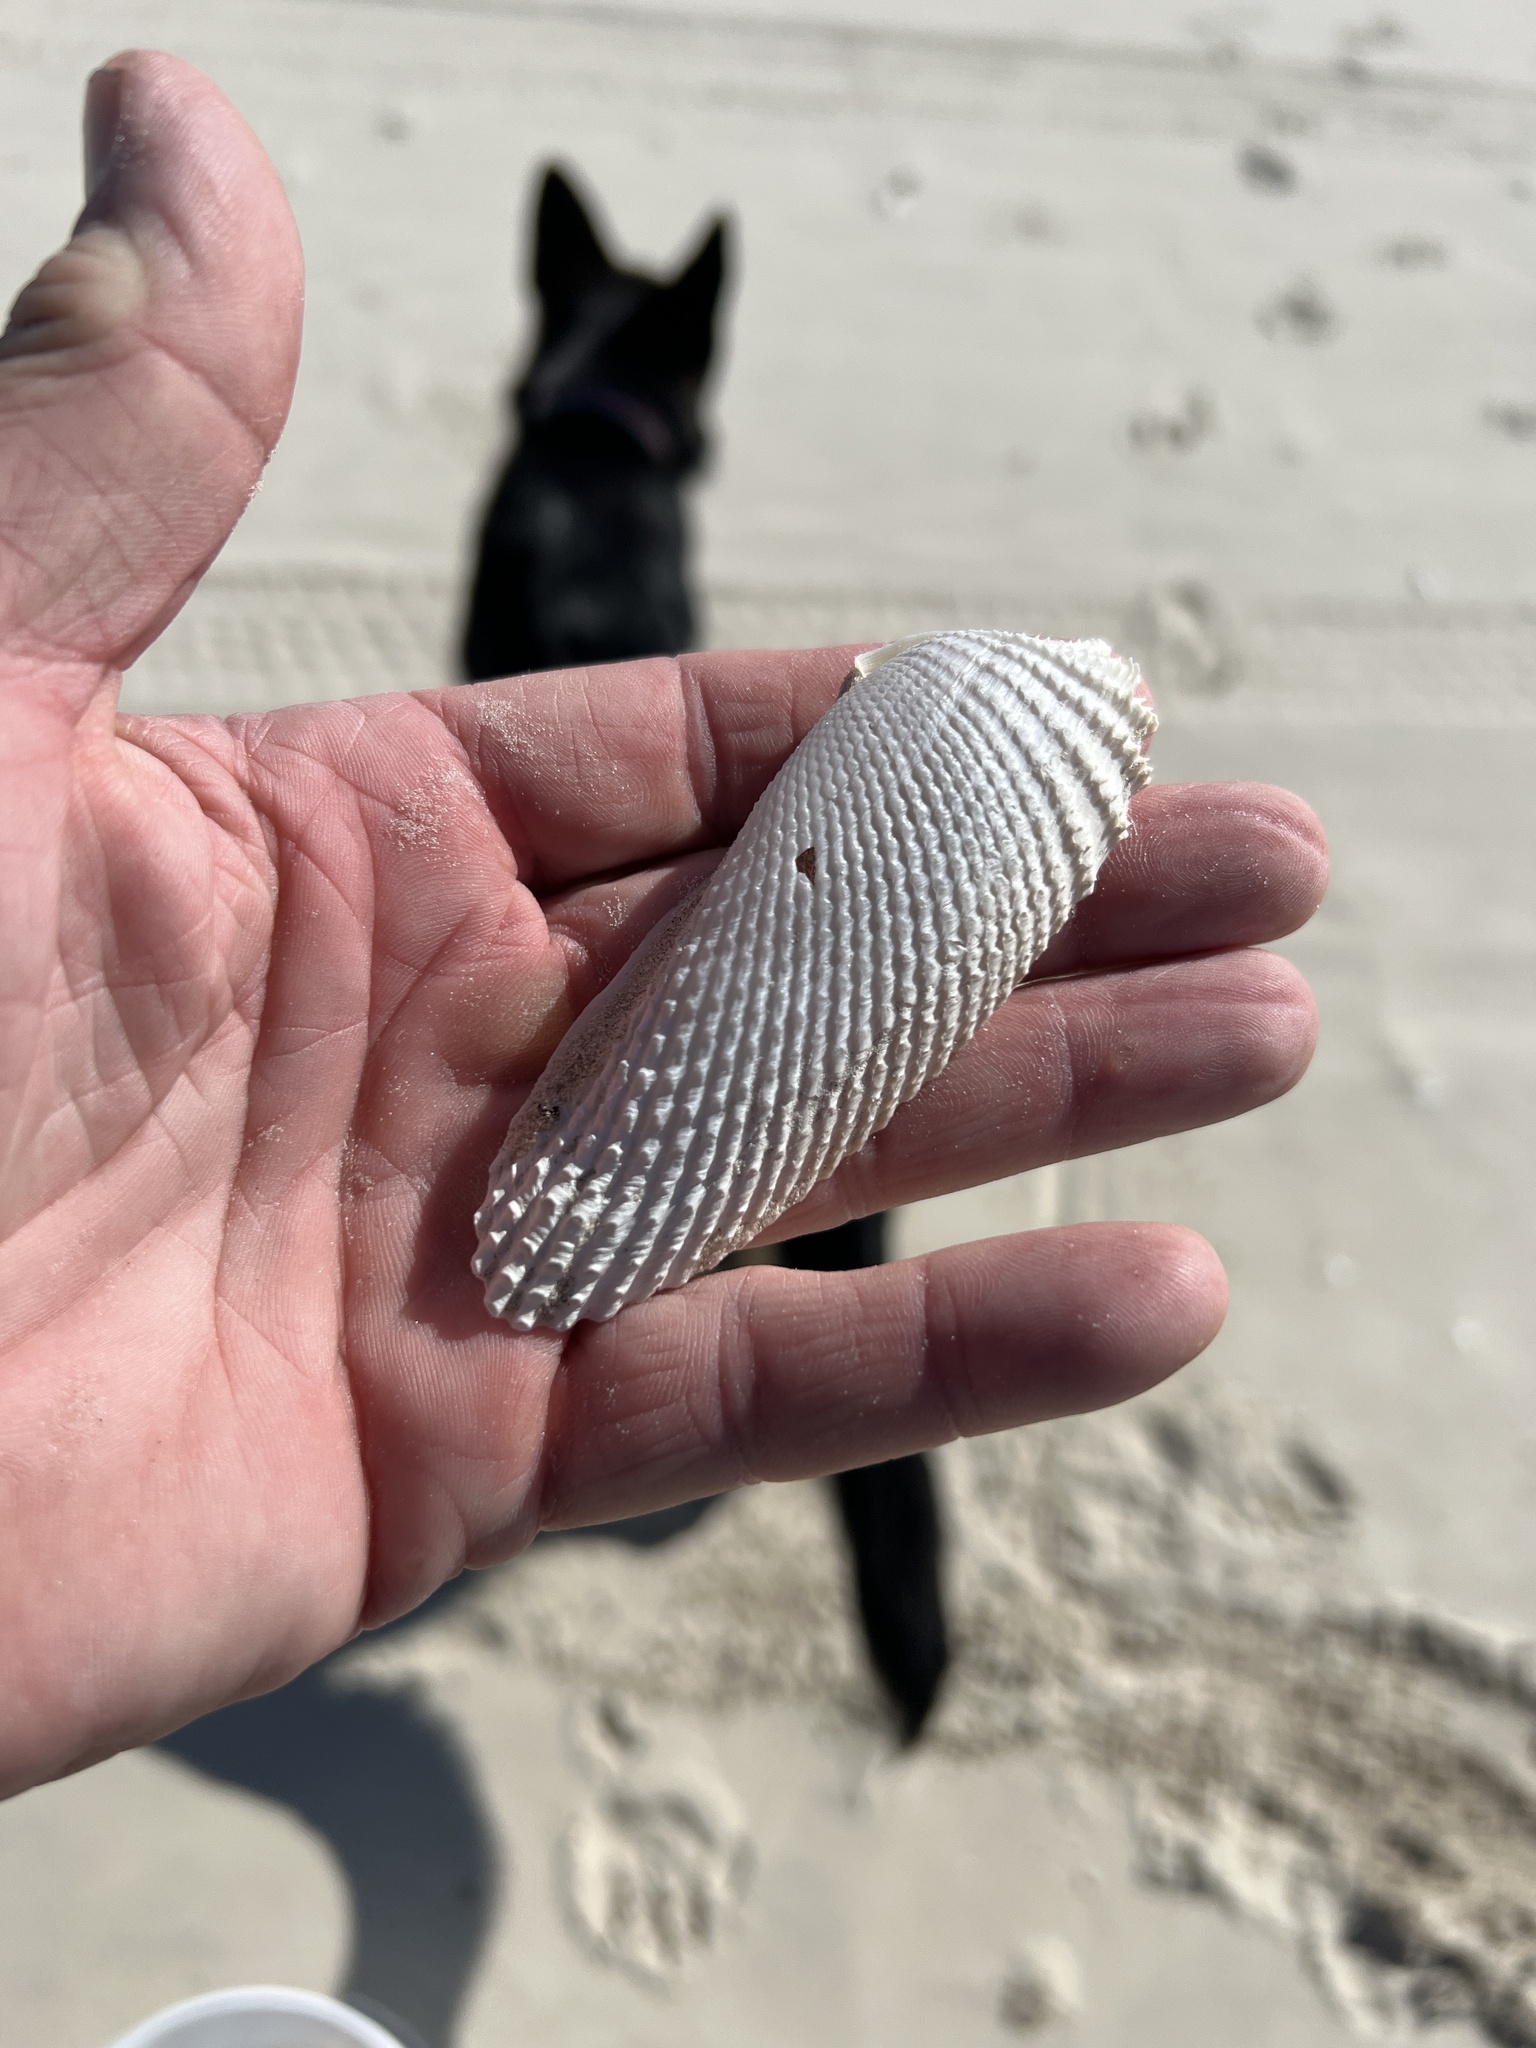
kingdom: Animalia
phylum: Mollusca
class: Bivalvia
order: Myida
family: Pholadidae
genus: Cyrtopleura
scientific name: Cyrtopleura costata
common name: Angel wing
